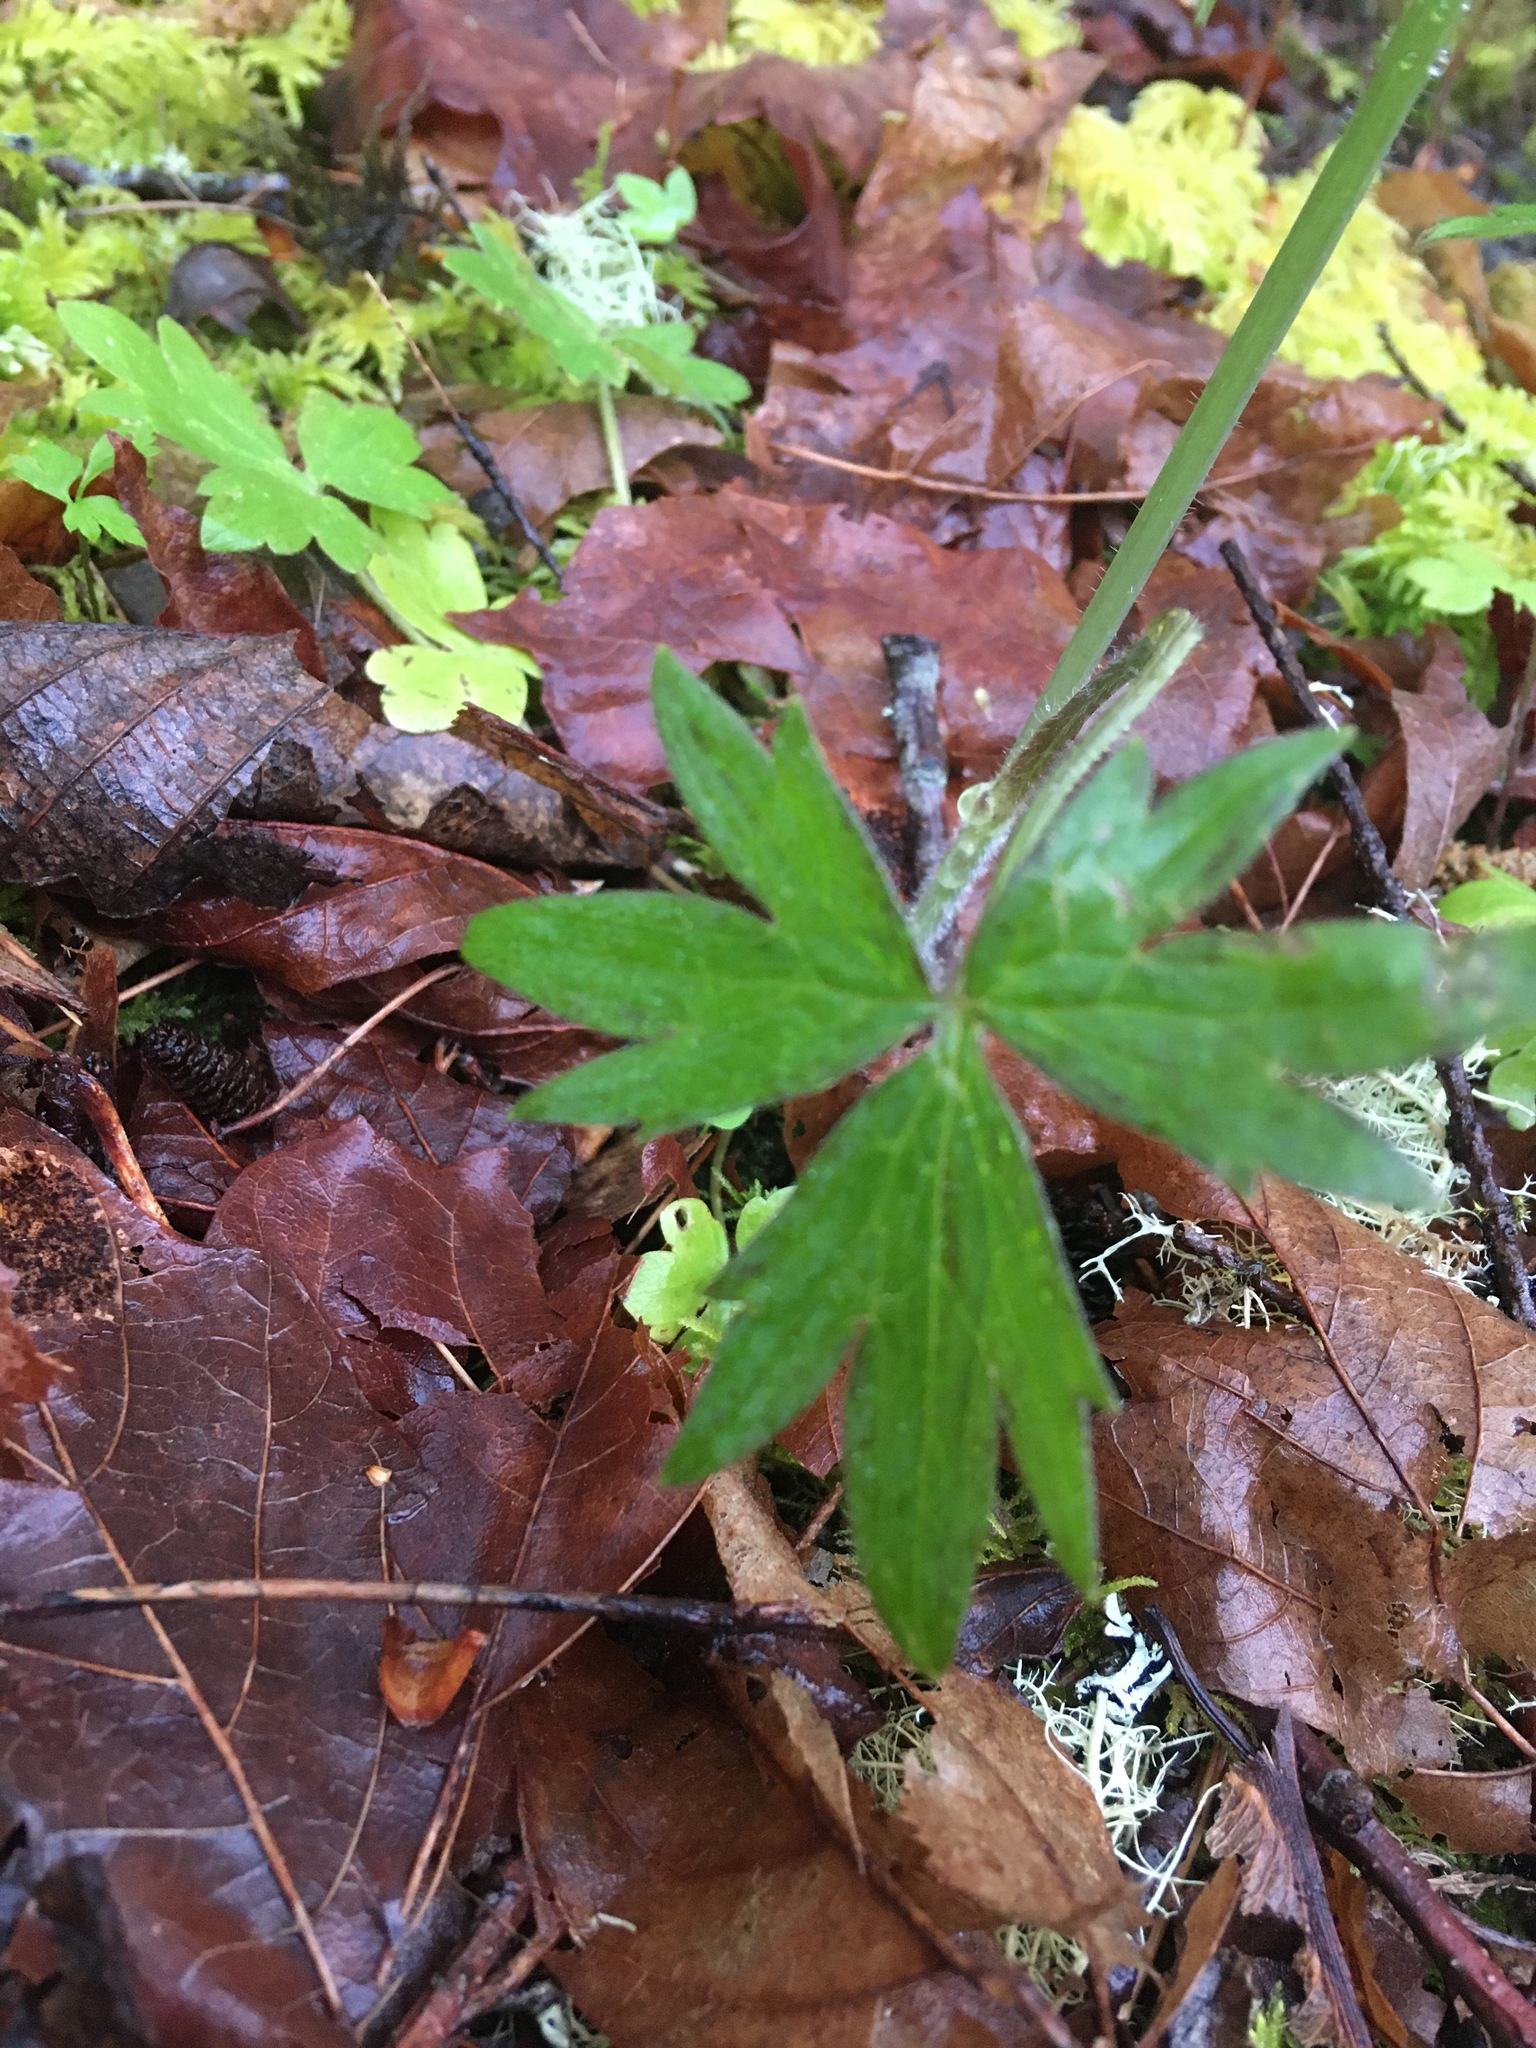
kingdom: Plantae
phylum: Tracheophyta
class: Magnoliopsida
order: Ranunculales
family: Ranunculaceae
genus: Ranunculus
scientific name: Ranunculus uncinatus
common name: Little buttercup
